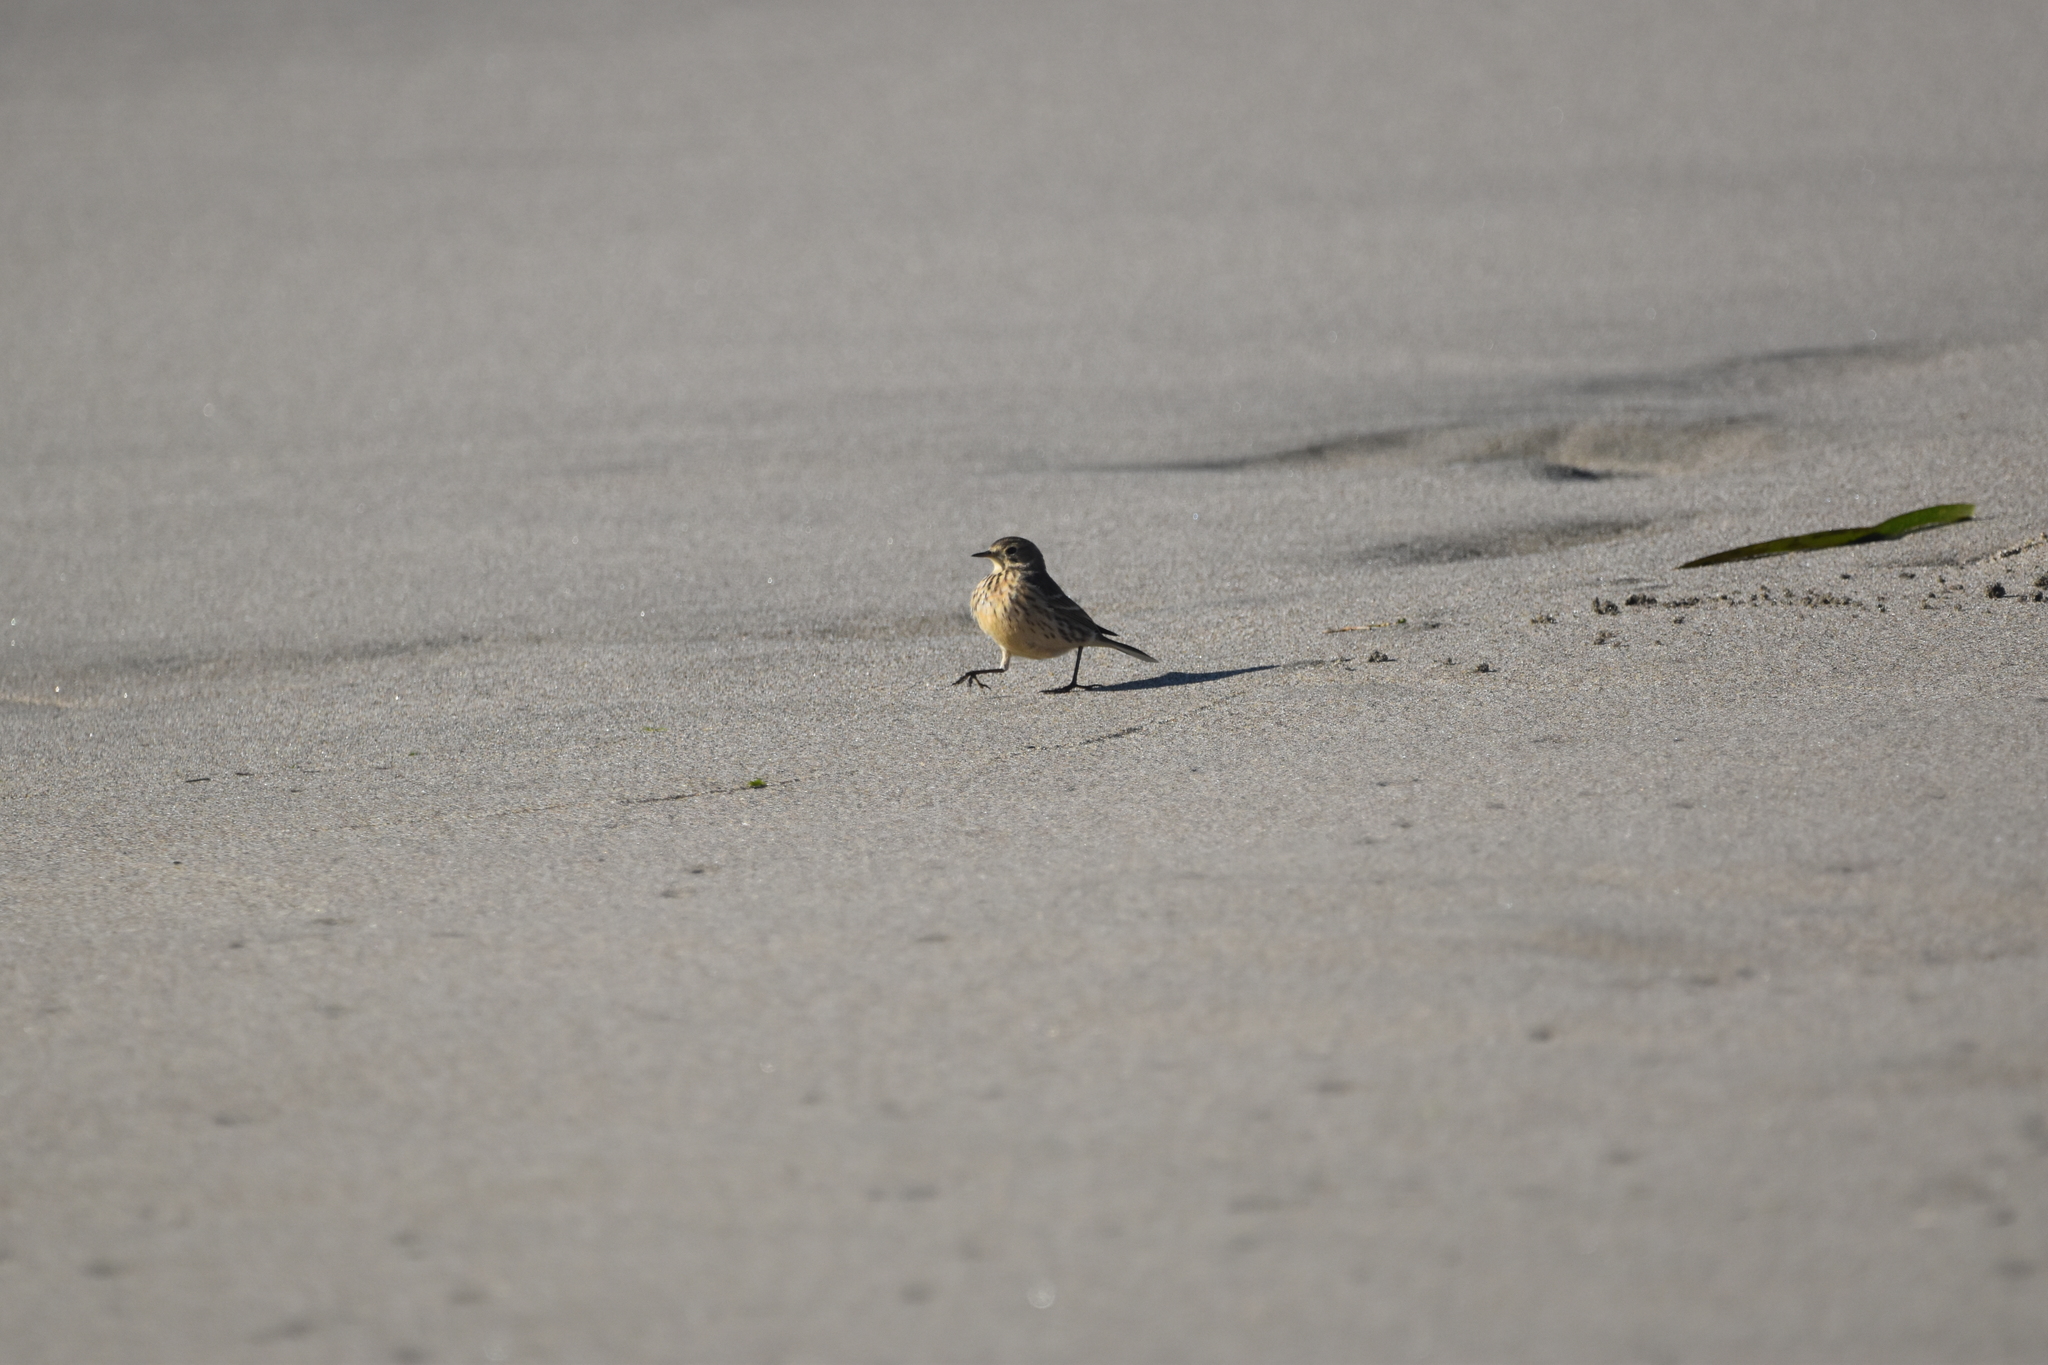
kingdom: Animalia
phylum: Chordata
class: Aves
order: Passeriformes
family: Motacillidae
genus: Anthus
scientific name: Anthus rubescens
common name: Buff-bellied pipit
